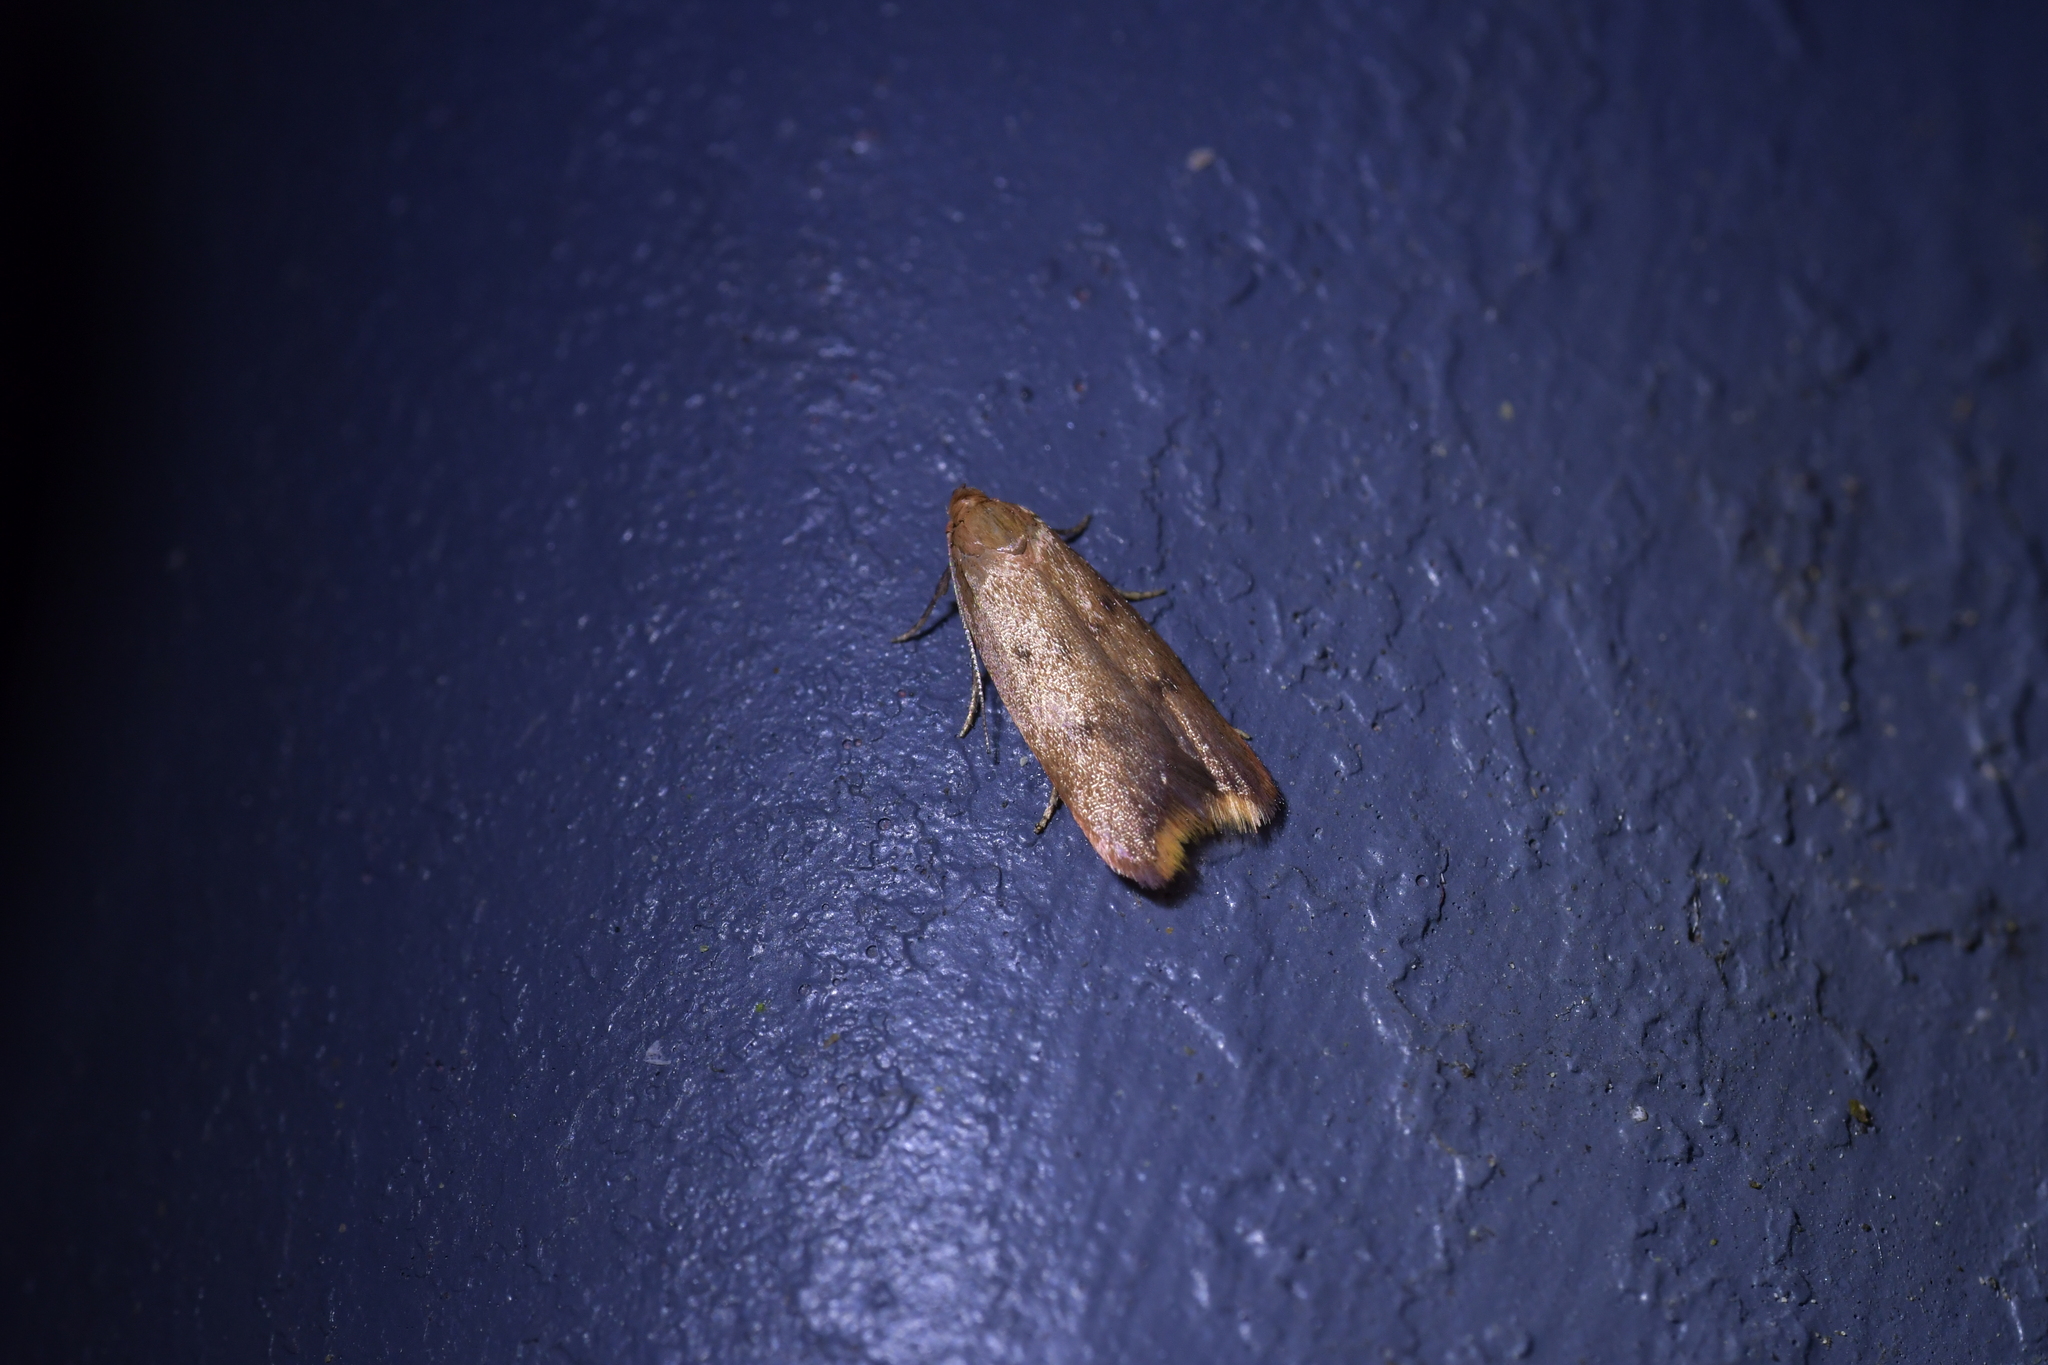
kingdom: Animalia
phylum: Arthropoda
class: Insecta
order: Lepidoptera
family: Oecophoridae
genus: Tachystola
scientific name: Tachystola acroxantha
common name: Ruddy streak
